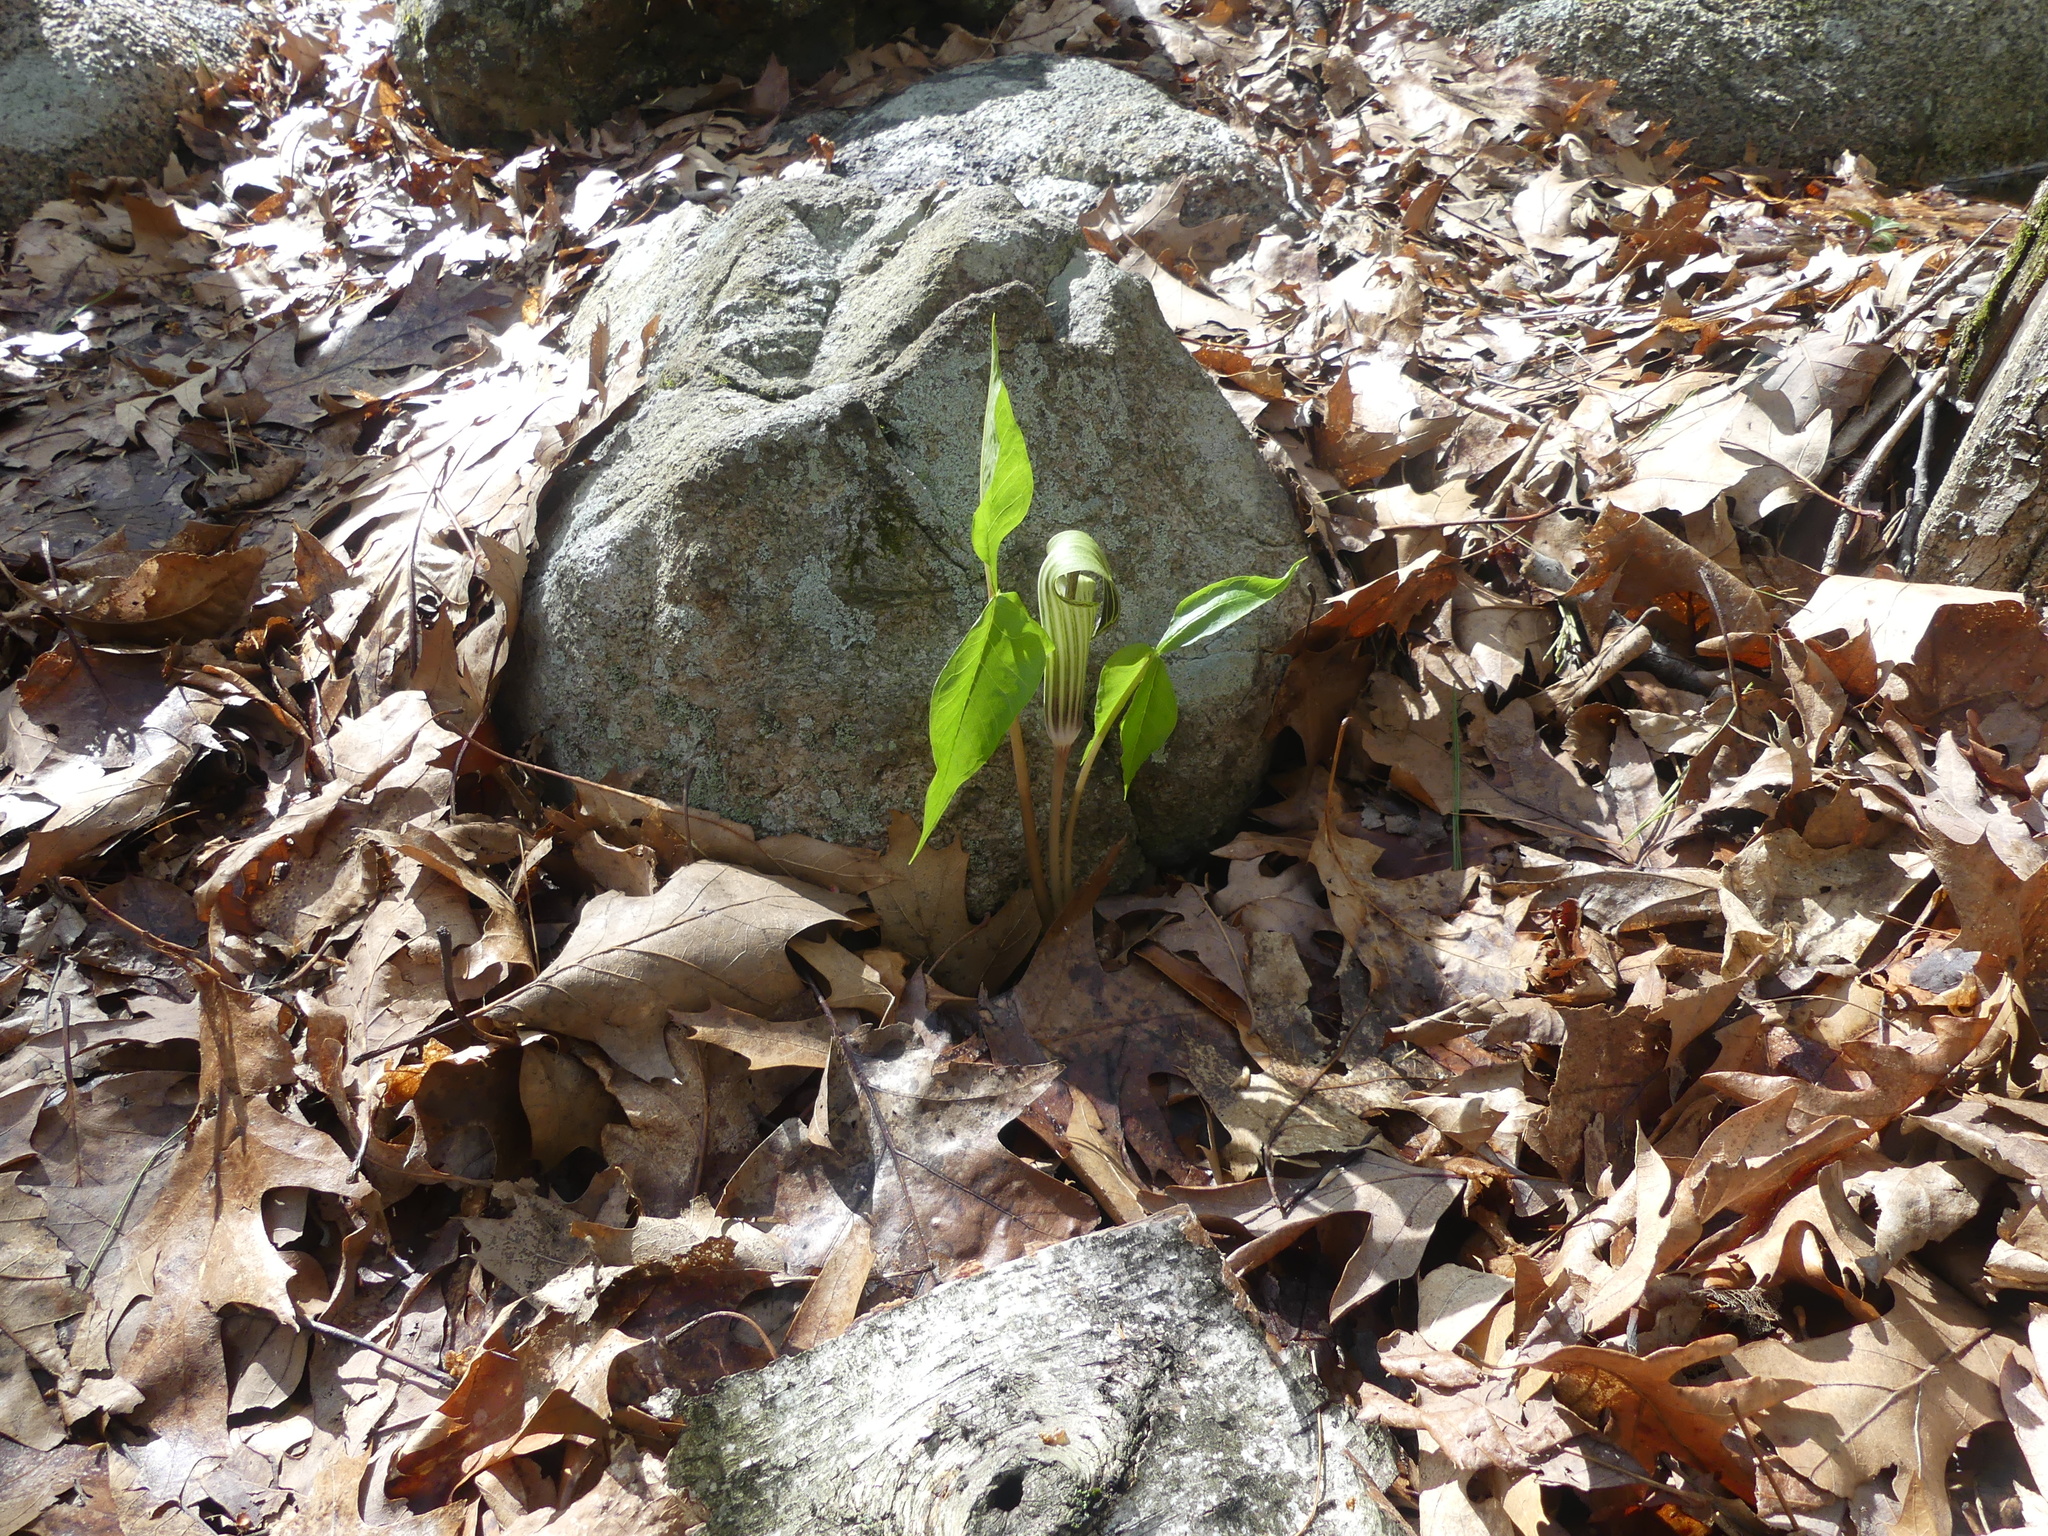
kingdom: Plantae
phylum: Tracheophyta
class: Liliopsida
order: Alismatales
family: Araceae
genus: Arisaema
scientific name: Arisaema triphyllum
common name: Jack-in-the-pulpit
